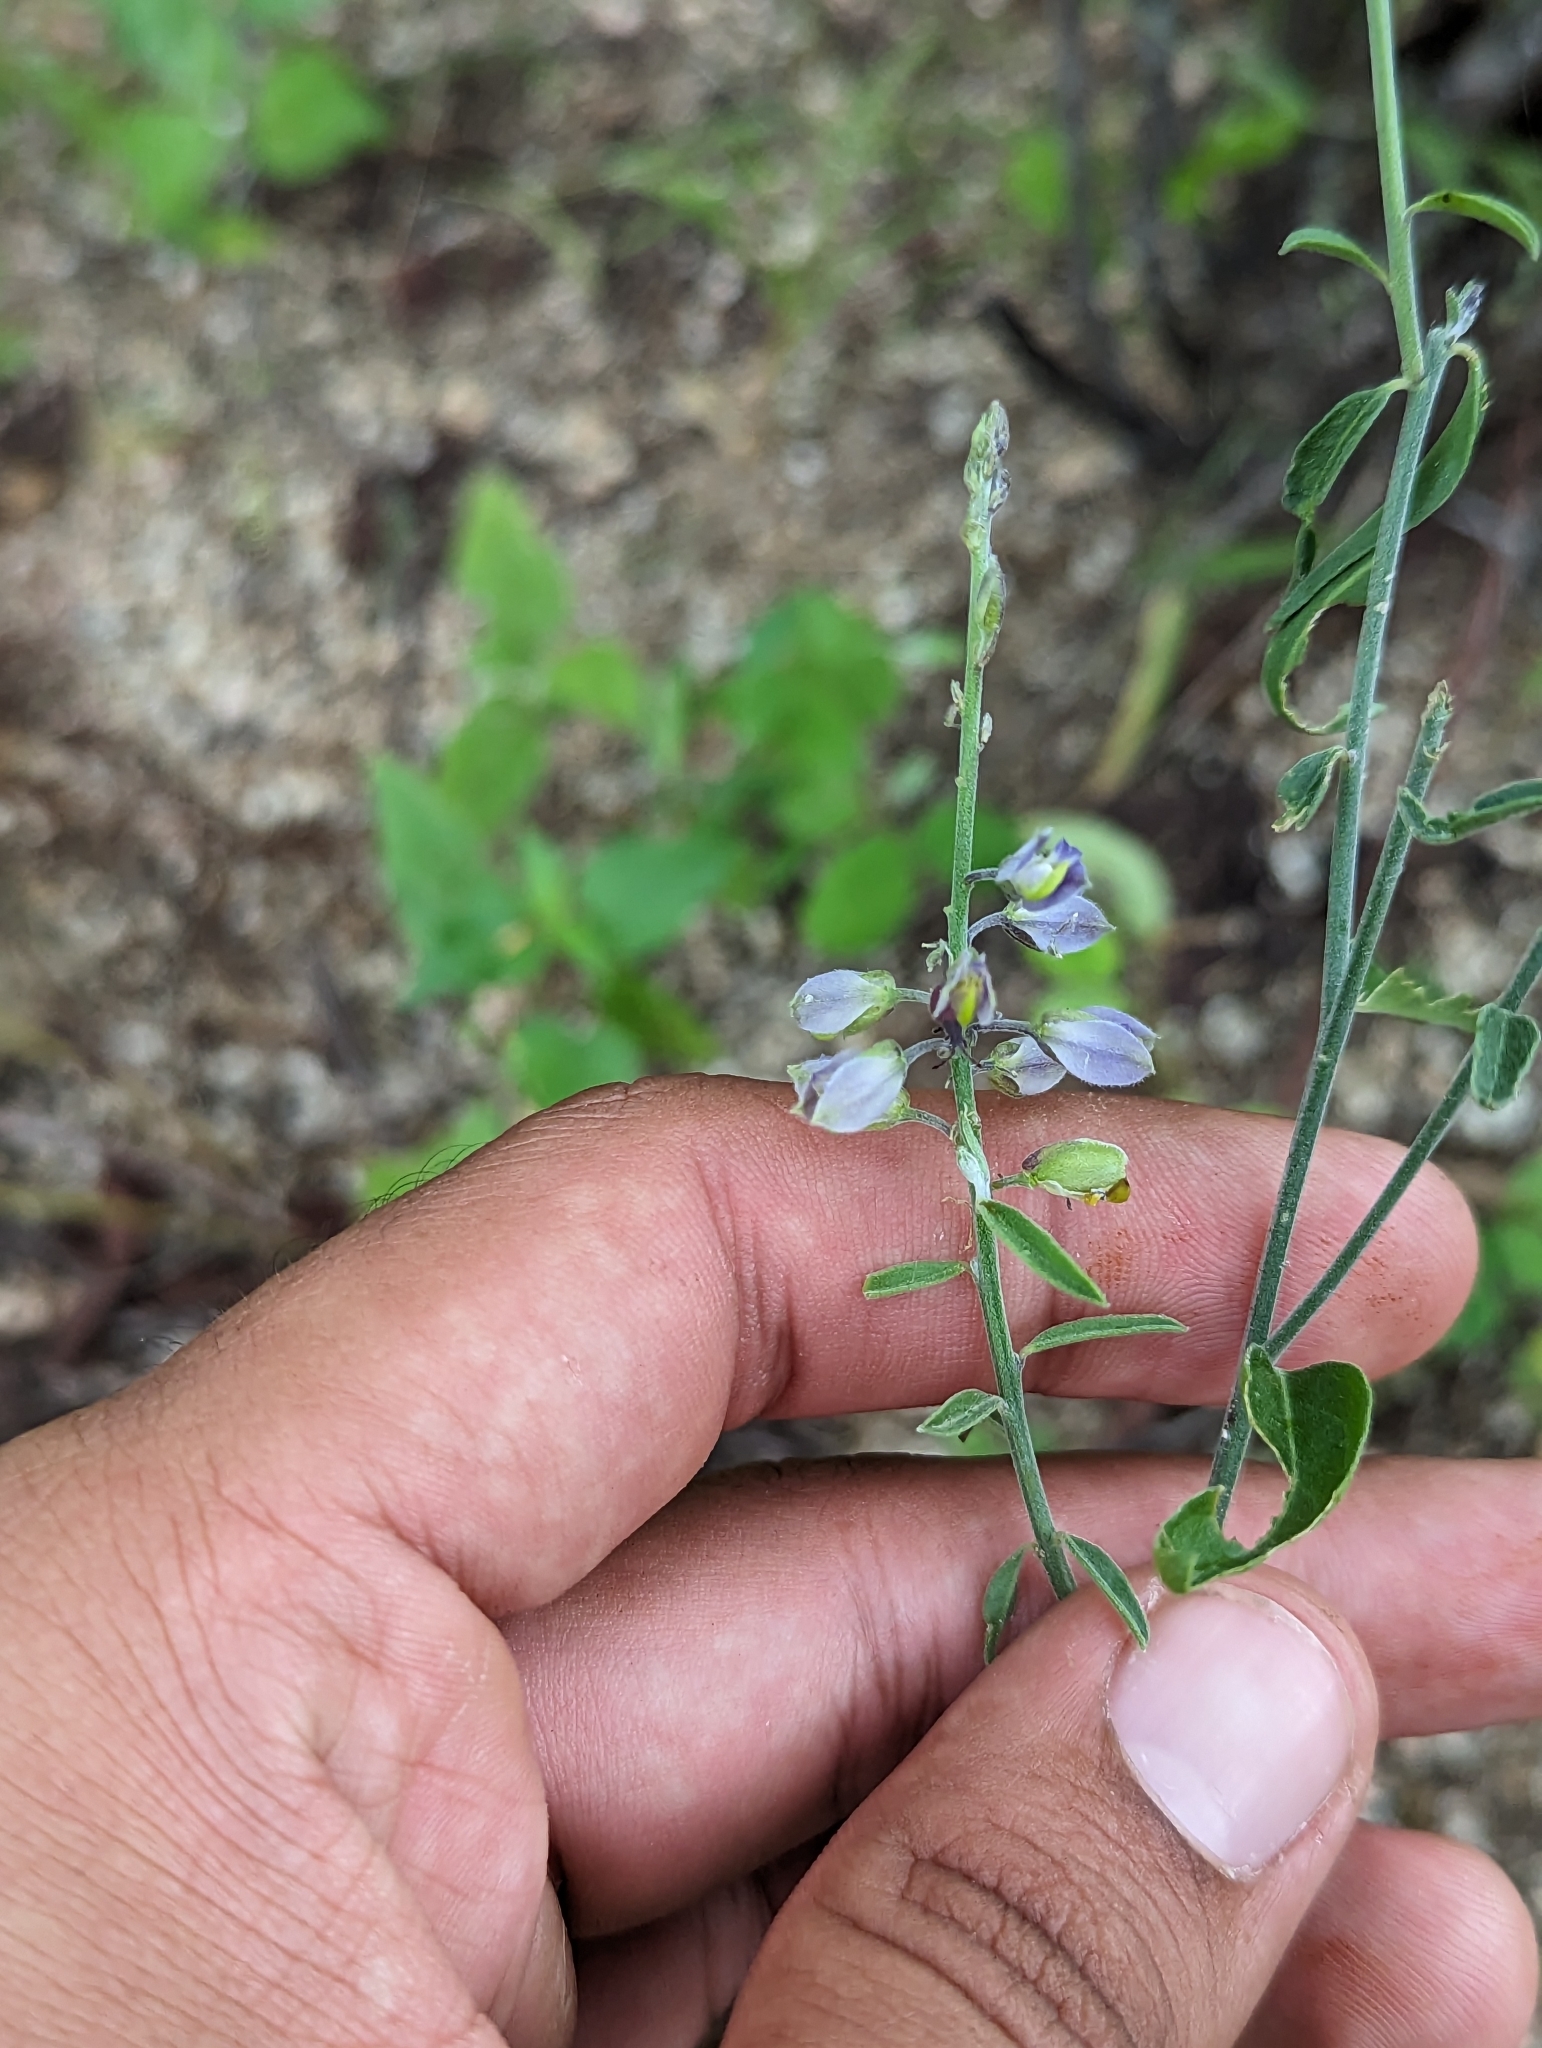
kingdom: Plantae
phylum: Tracheophyta
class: Magnoliopsida
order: Fabales
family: Polygalaceae
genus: Polygala
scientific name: Polygala magdalenae
